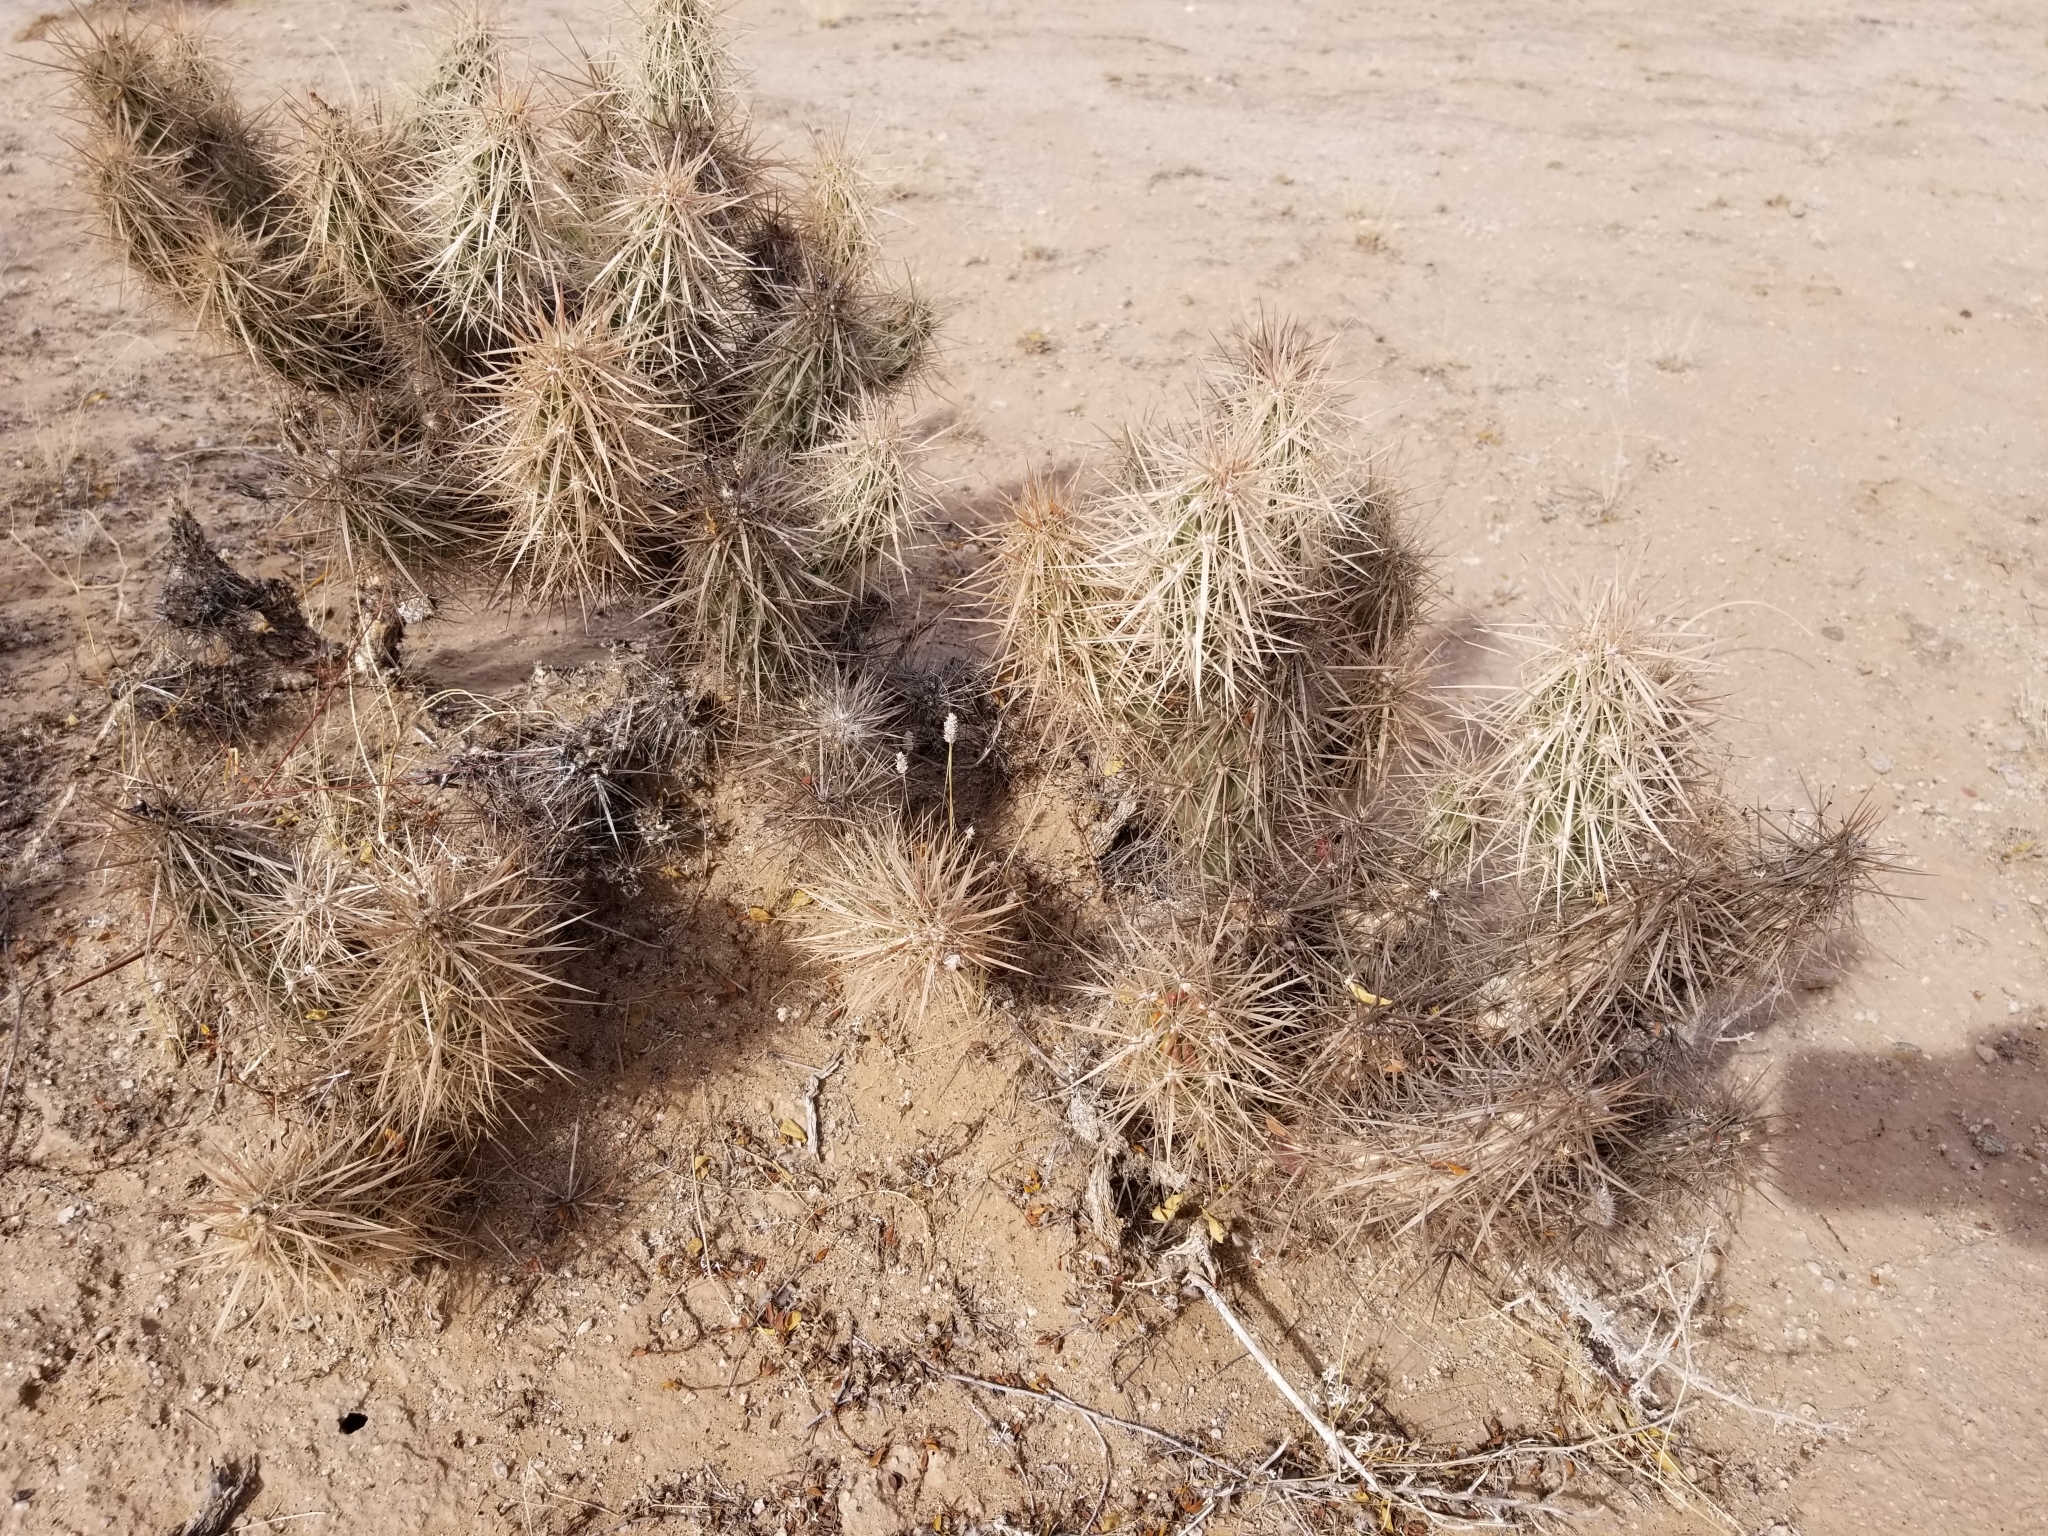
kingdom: Plantae
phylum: Tracheophyta
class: Magnoliopsida
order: Caryophyllales
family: Cactaceae
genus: Grusonia
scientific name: Grusonia kunzei
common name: Wright's club cholla
